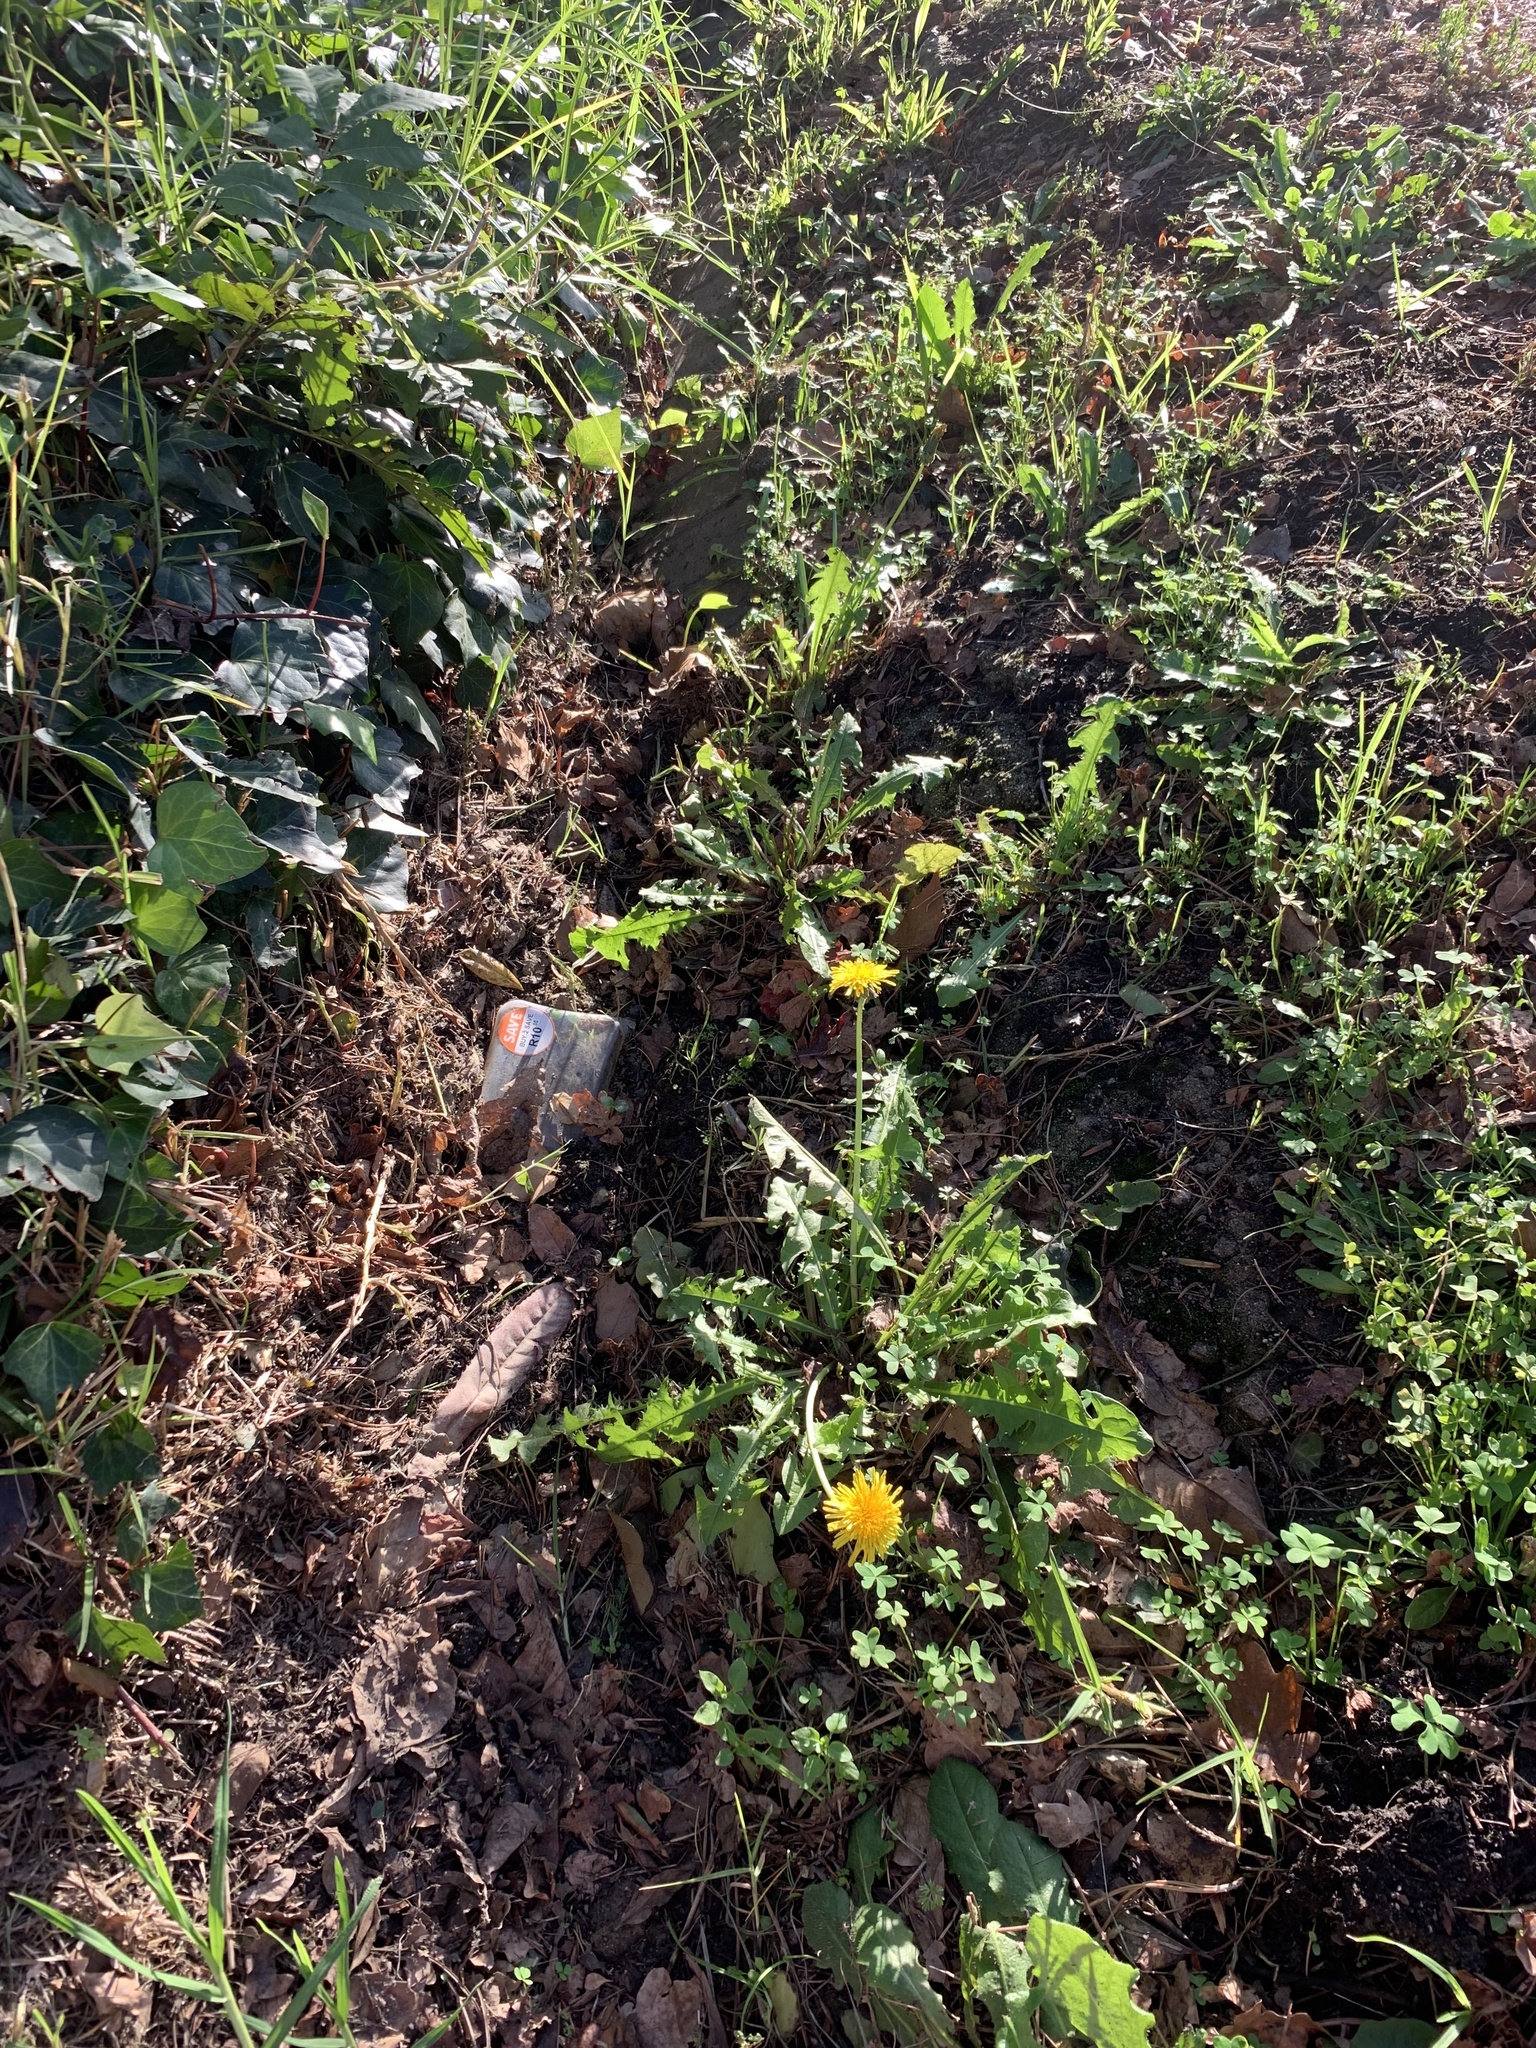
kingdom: Plantae
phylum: Tracheophyta
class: Magnoliopsida
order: Asterales
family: Asteraceae
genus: Taraxacum
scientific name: Taraxacum officinale
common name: Common dandelion
